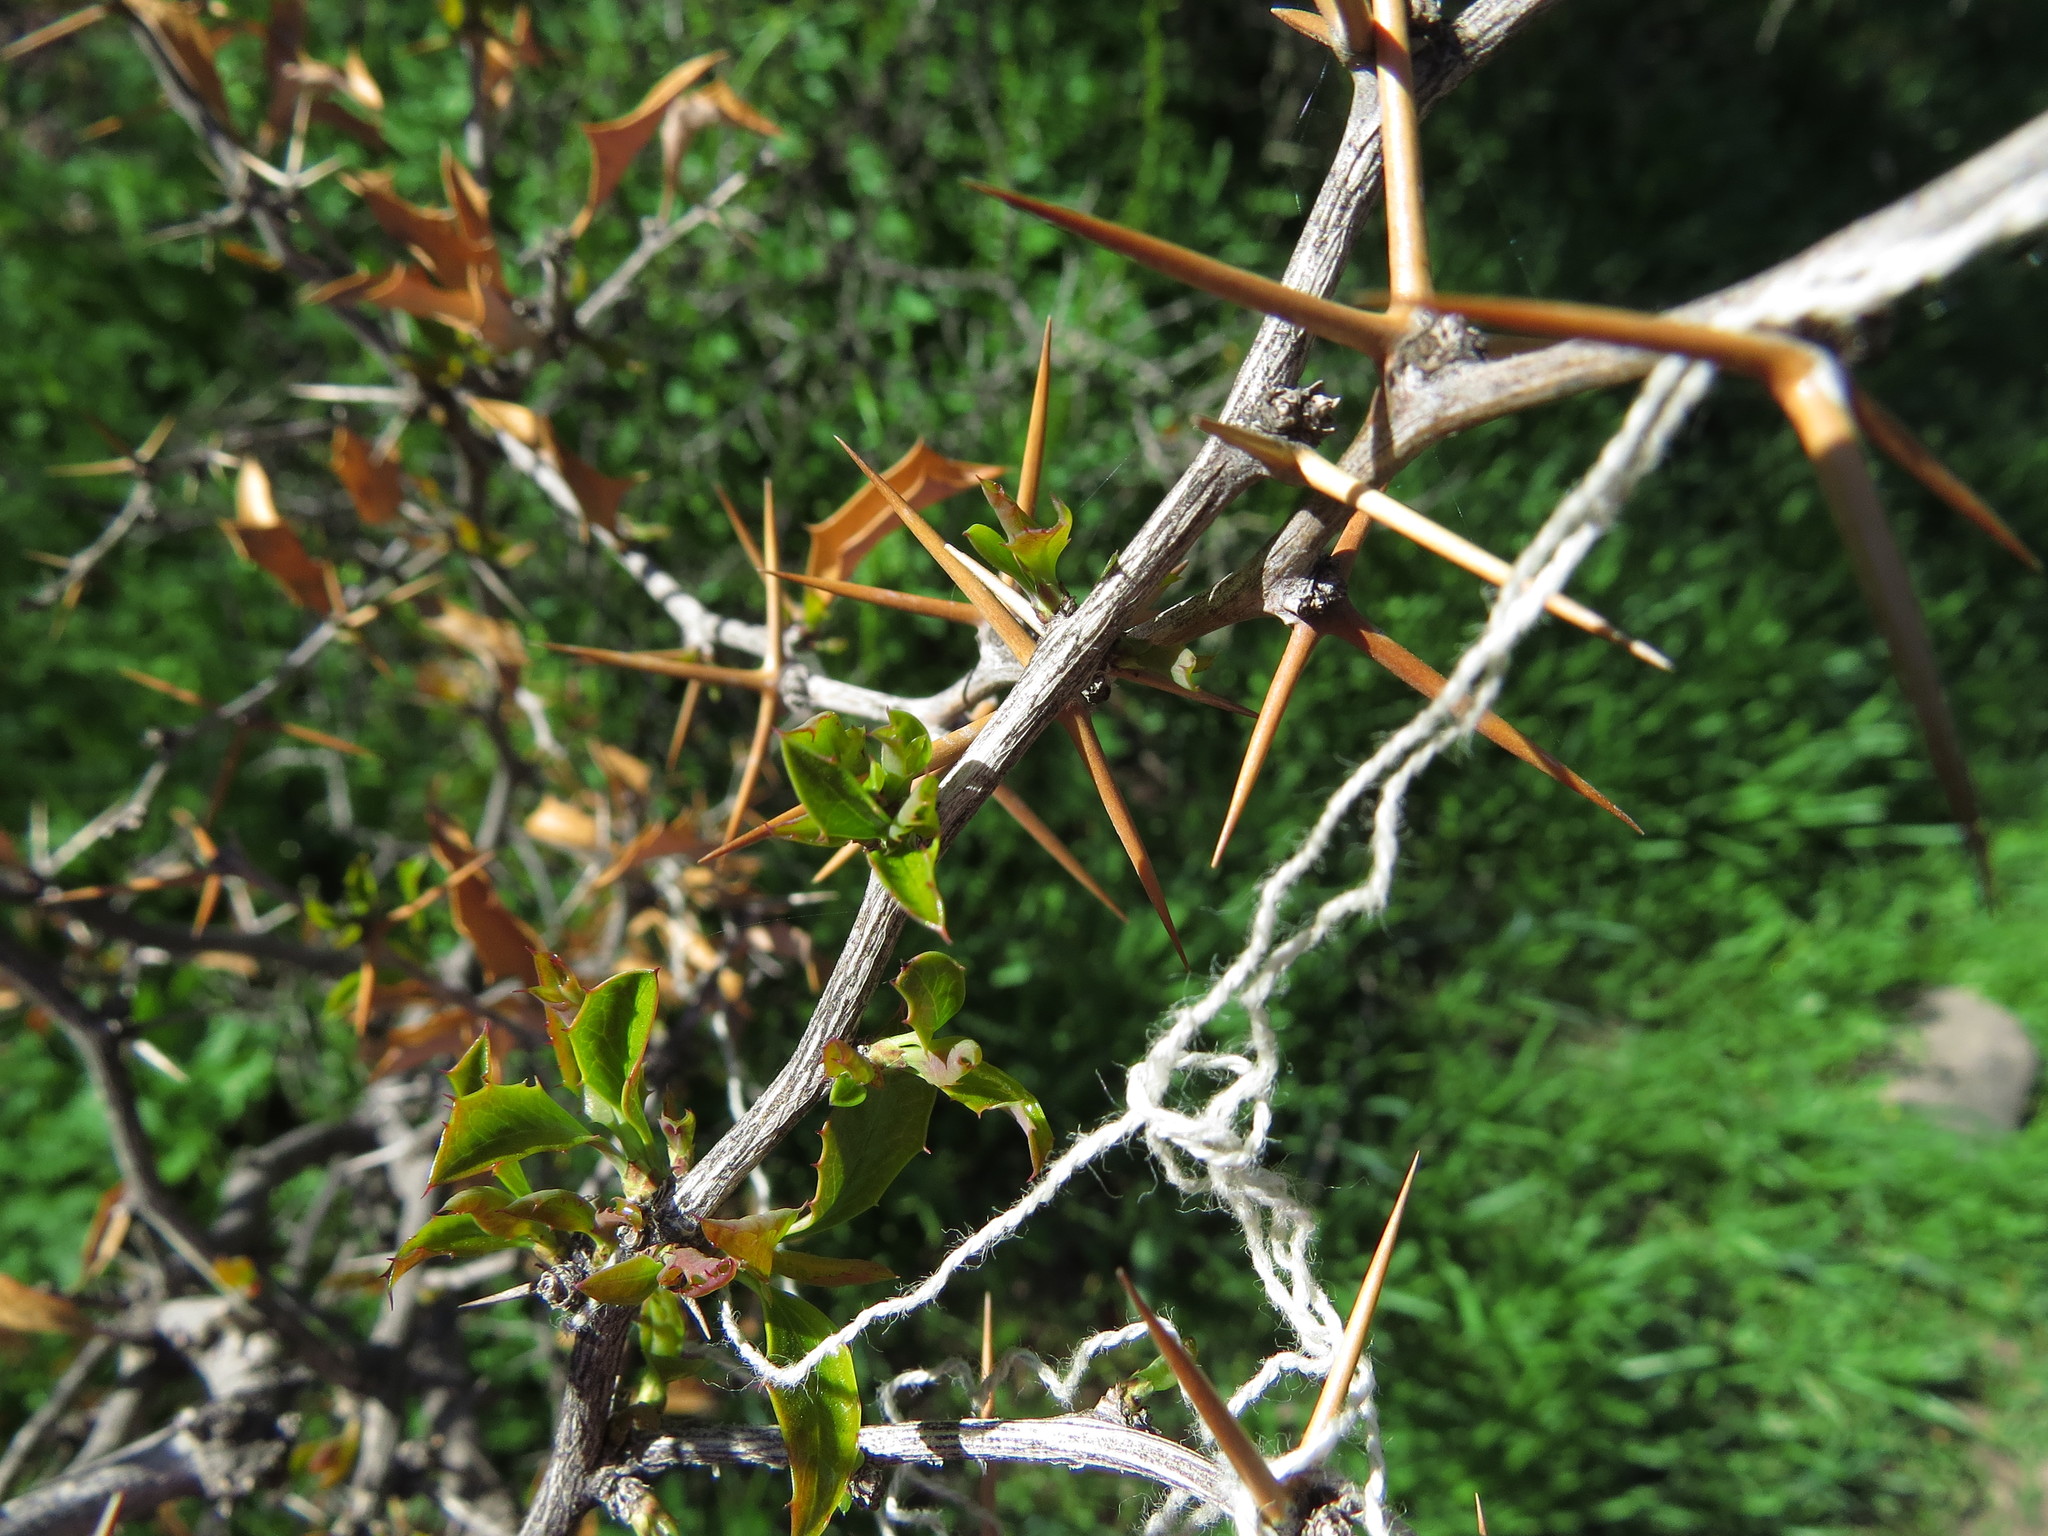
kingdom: Plantae
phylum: Tracheophyta
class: Magnoliopsida
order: Ranunculales
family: Berberidaceae
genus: Berberis
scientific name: Berberis chilensis
